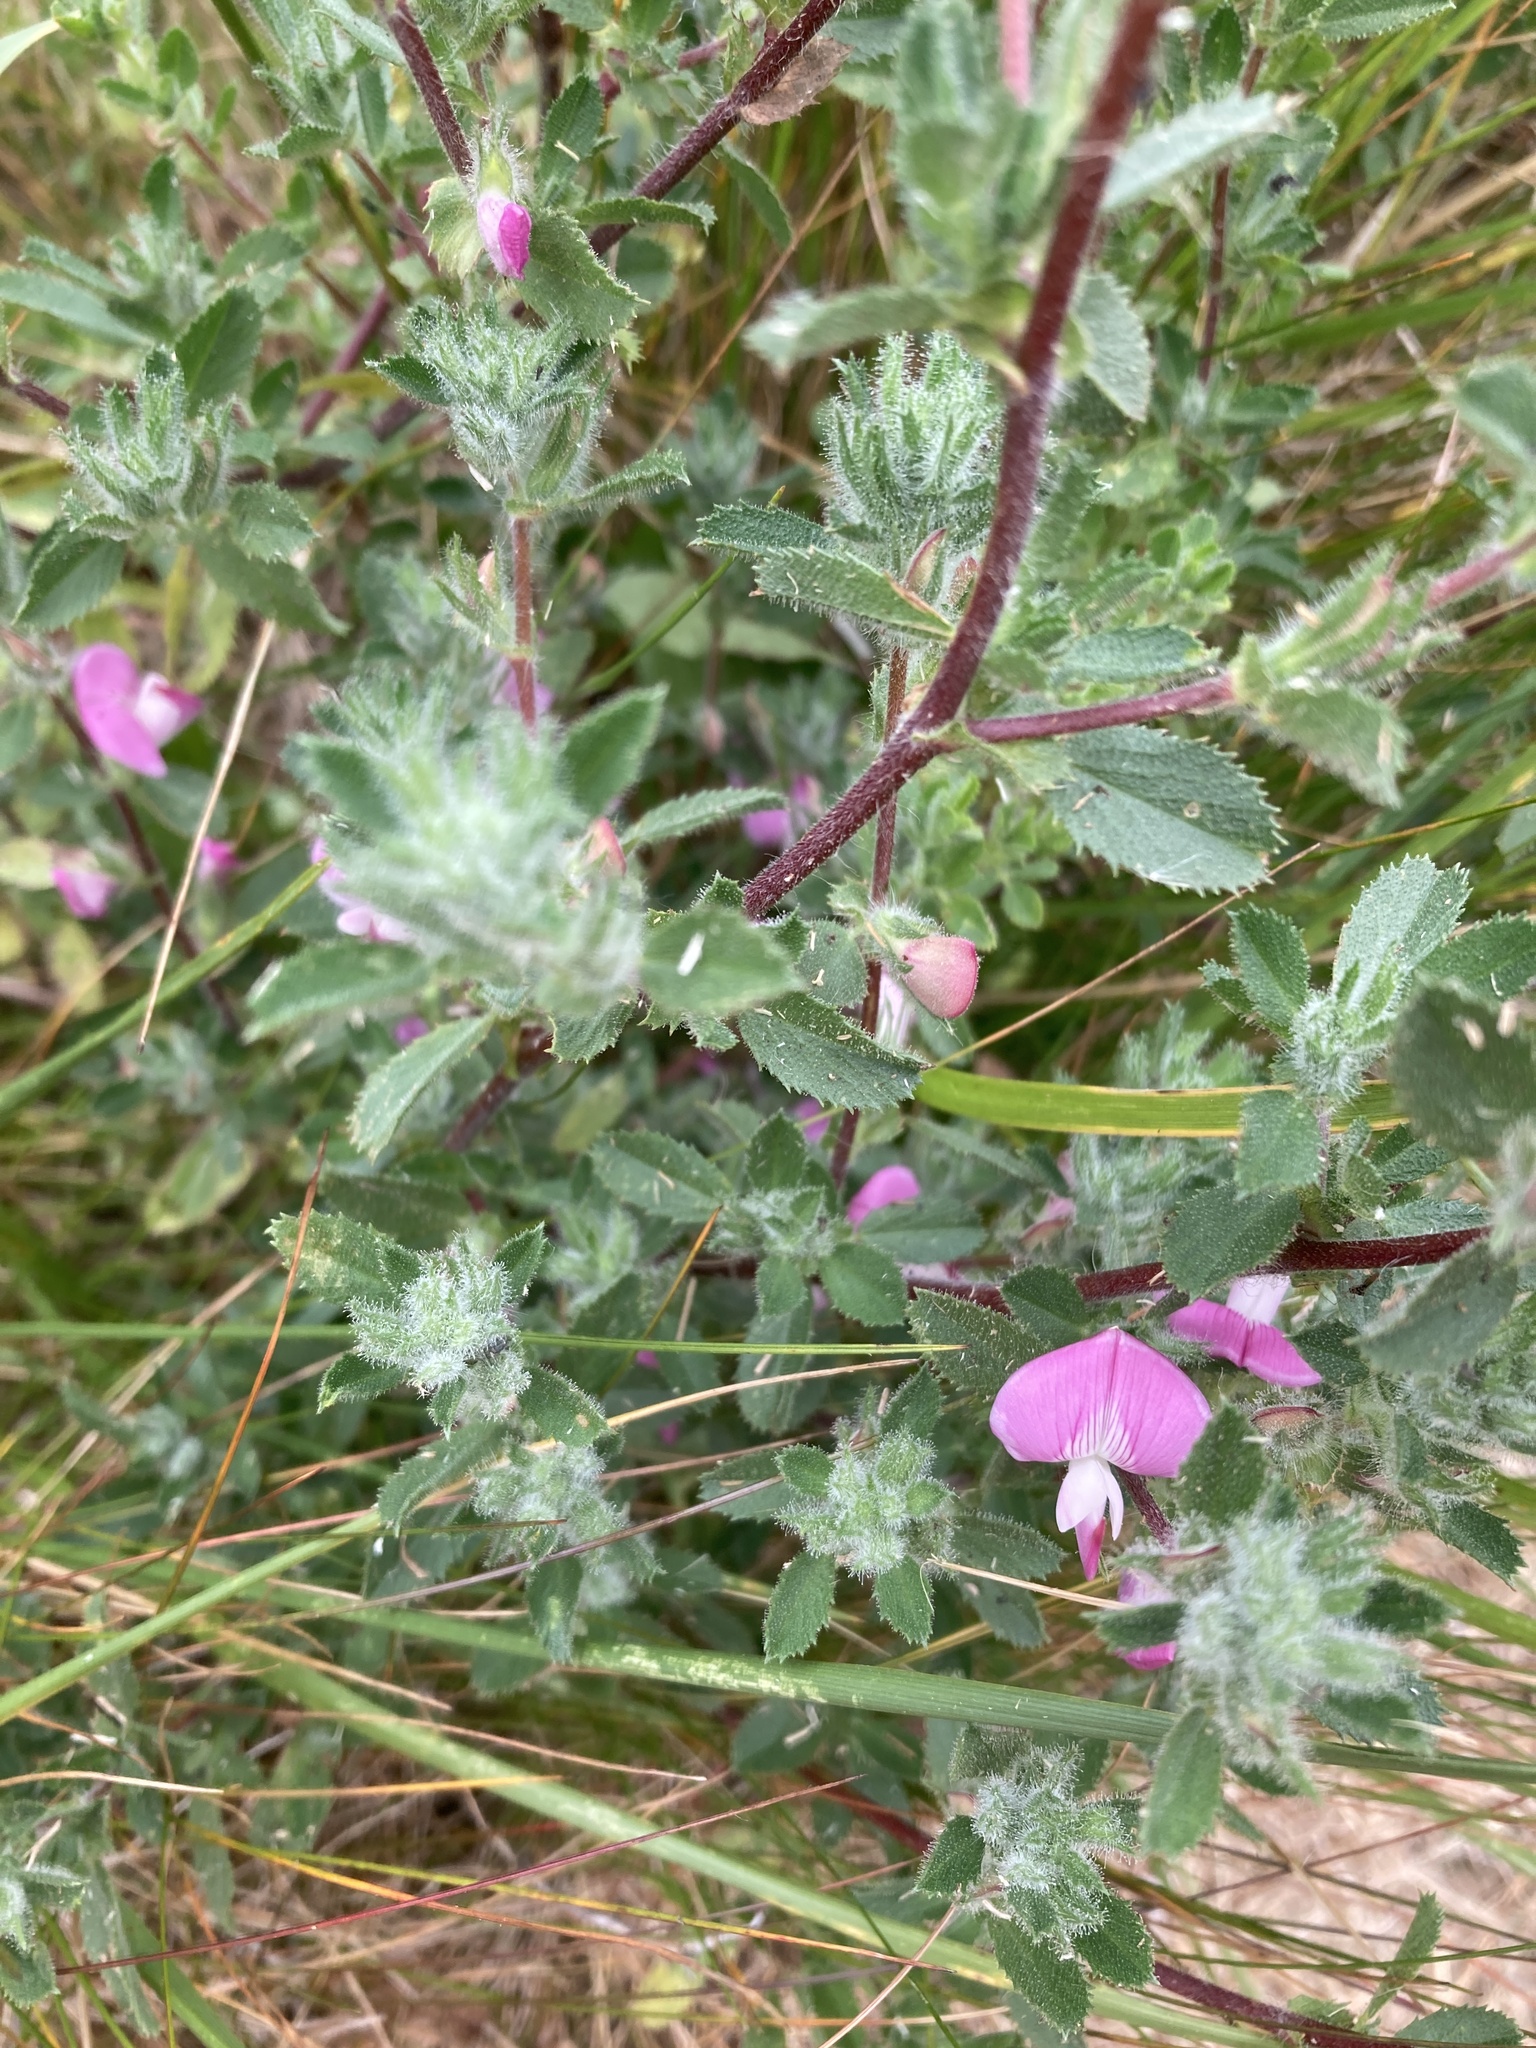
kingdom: Plantae
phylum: Tracheophyta
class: Magnoliopsida
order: Fabales
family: Fabaceae
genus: Ononis
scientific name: Ononis spinosa
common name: Spiny restharrow
